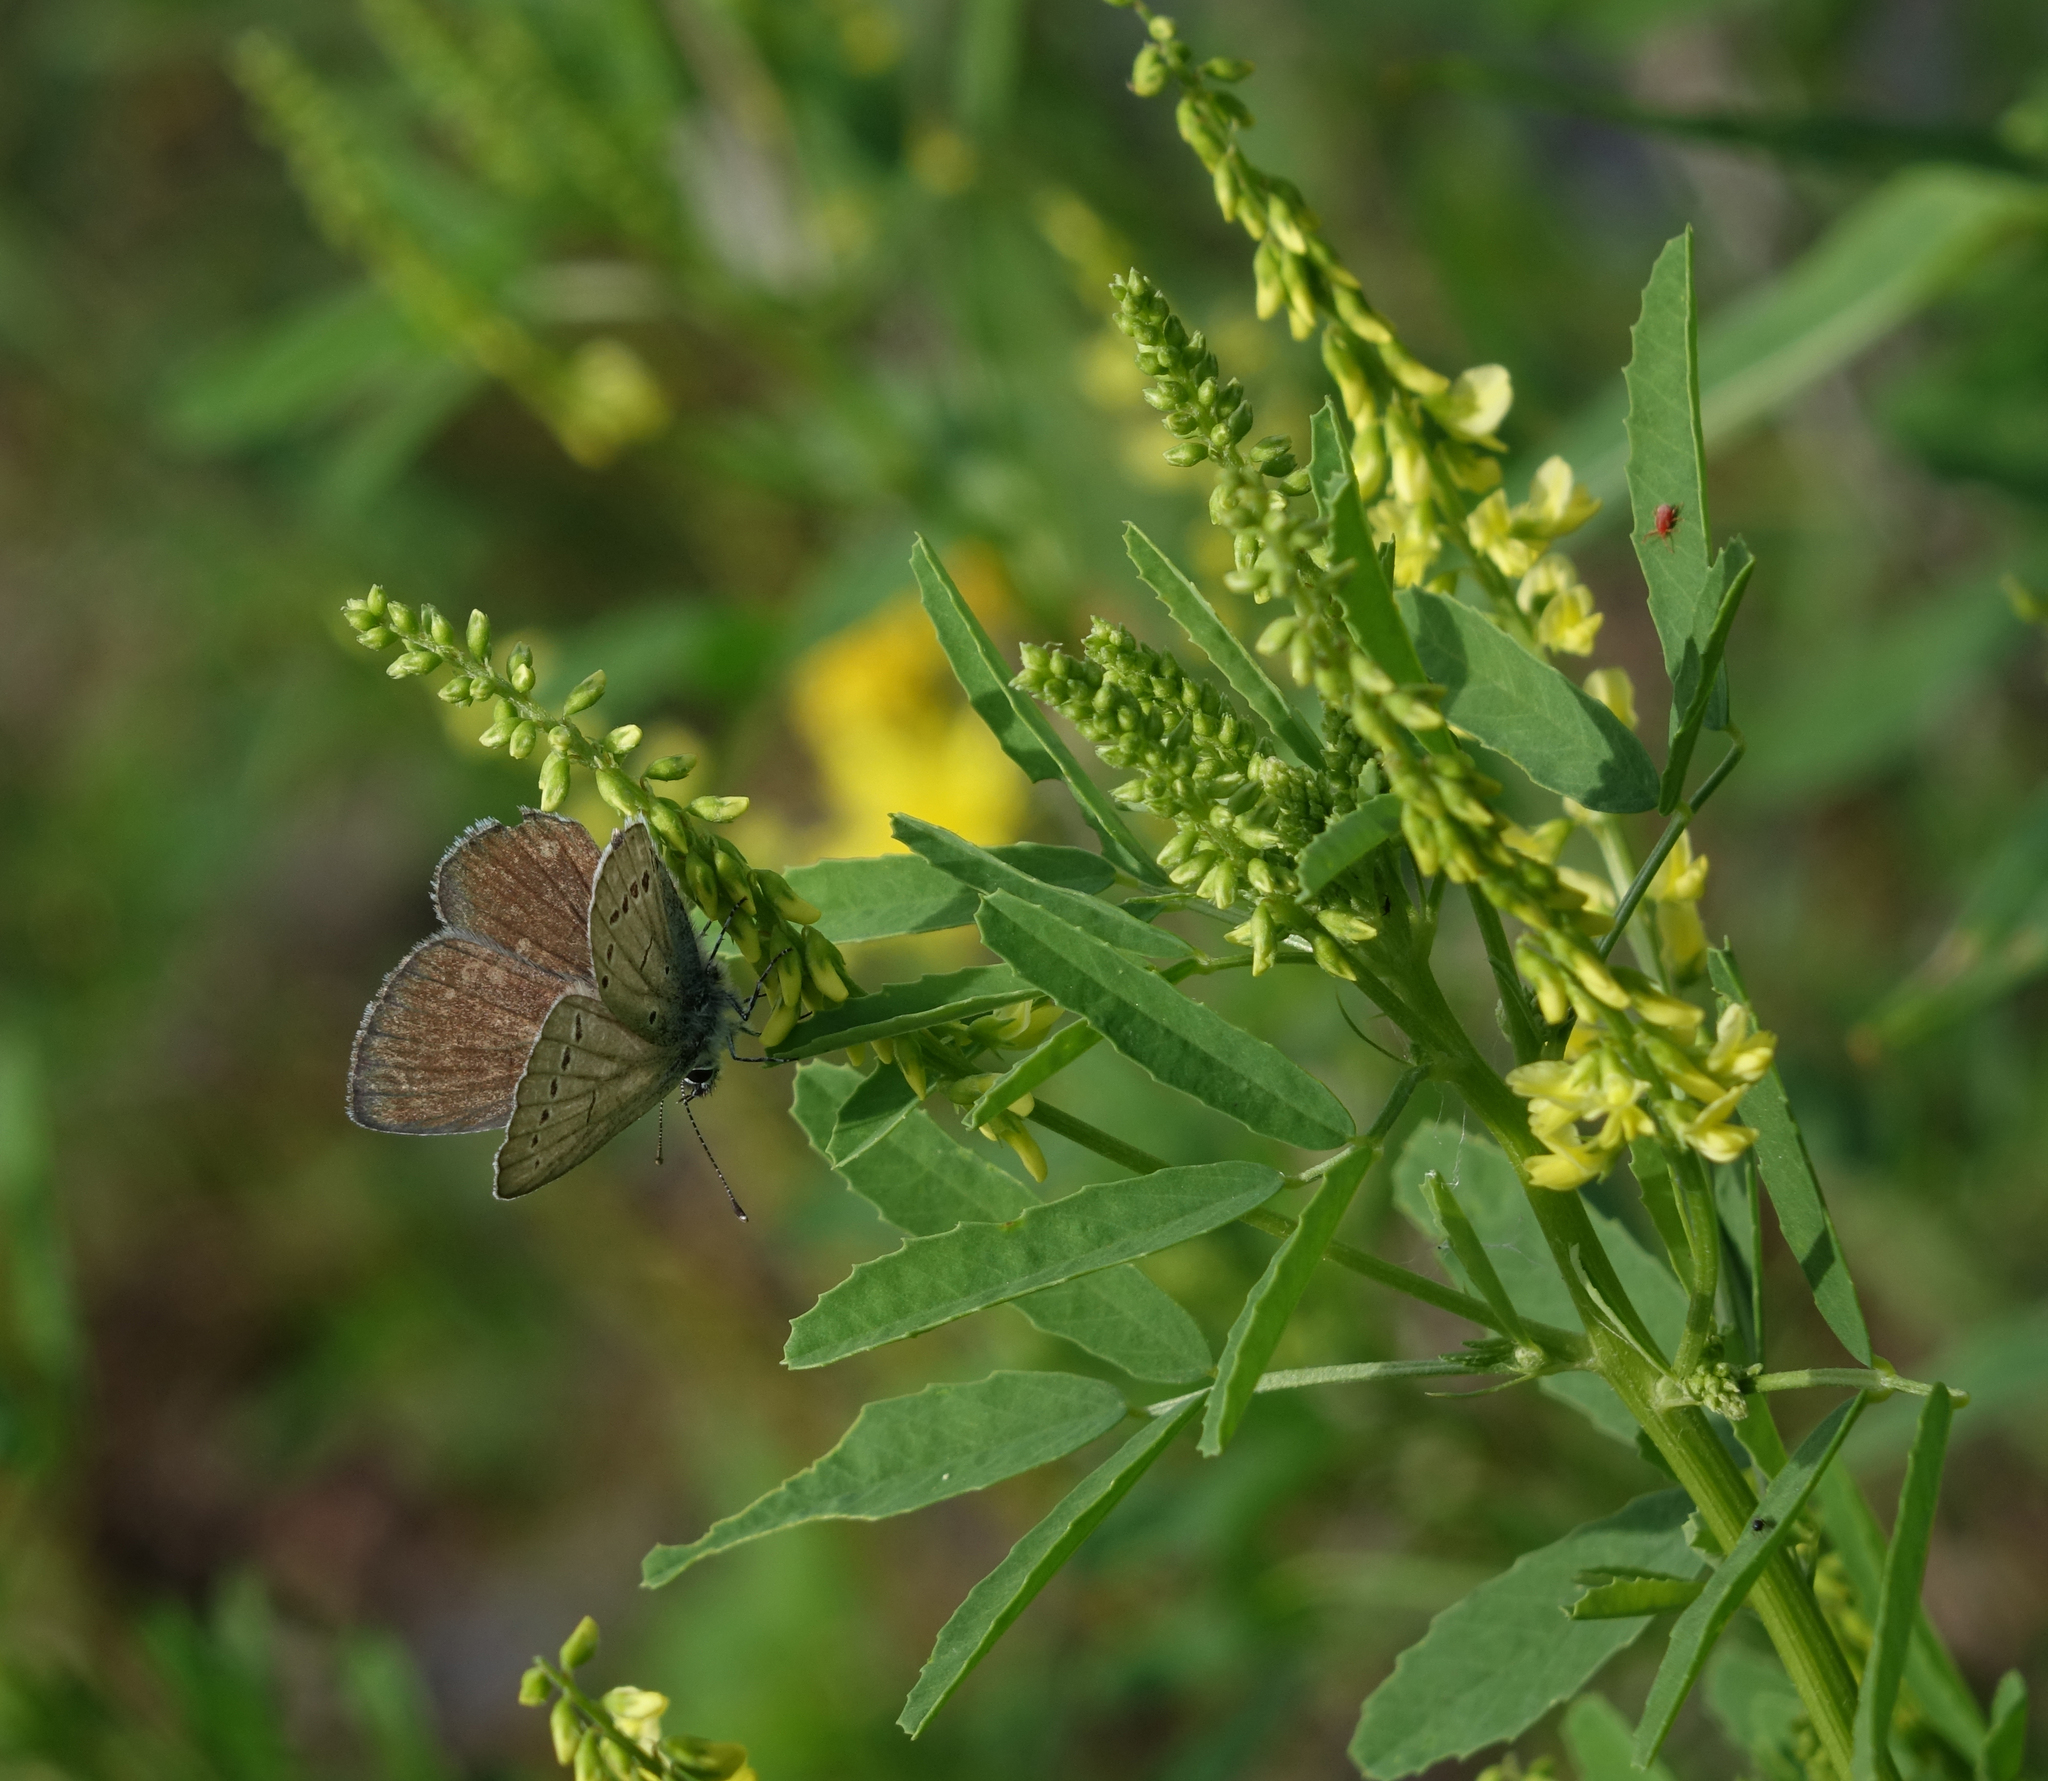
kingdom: Plantae
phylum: Tracheophyta
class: Magnoliopsida
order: Fabales
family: Fabaceae
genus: Melilotus
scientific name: Melilotus officinalis
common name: Sweetclover
